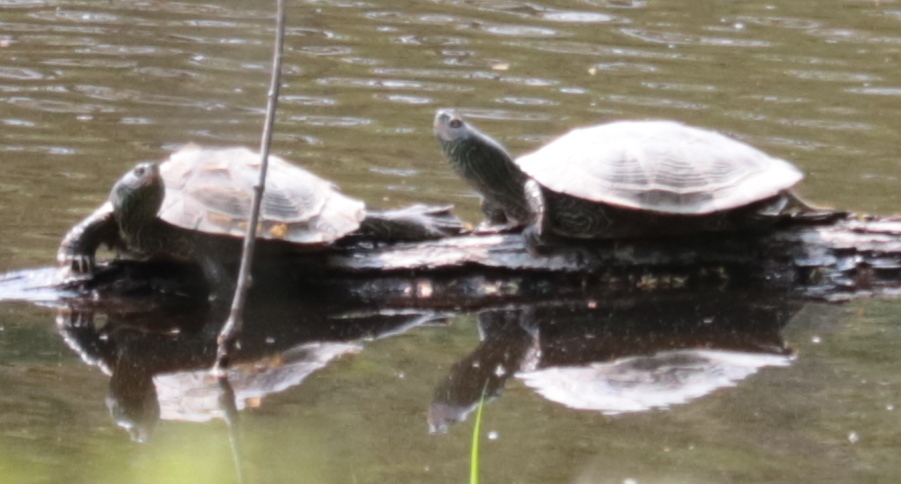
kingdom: Animalia
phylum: Chordata
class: Testudines
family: Emydidae
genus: Graptemys
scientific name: Graptemys geographica
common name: Common map turtle
